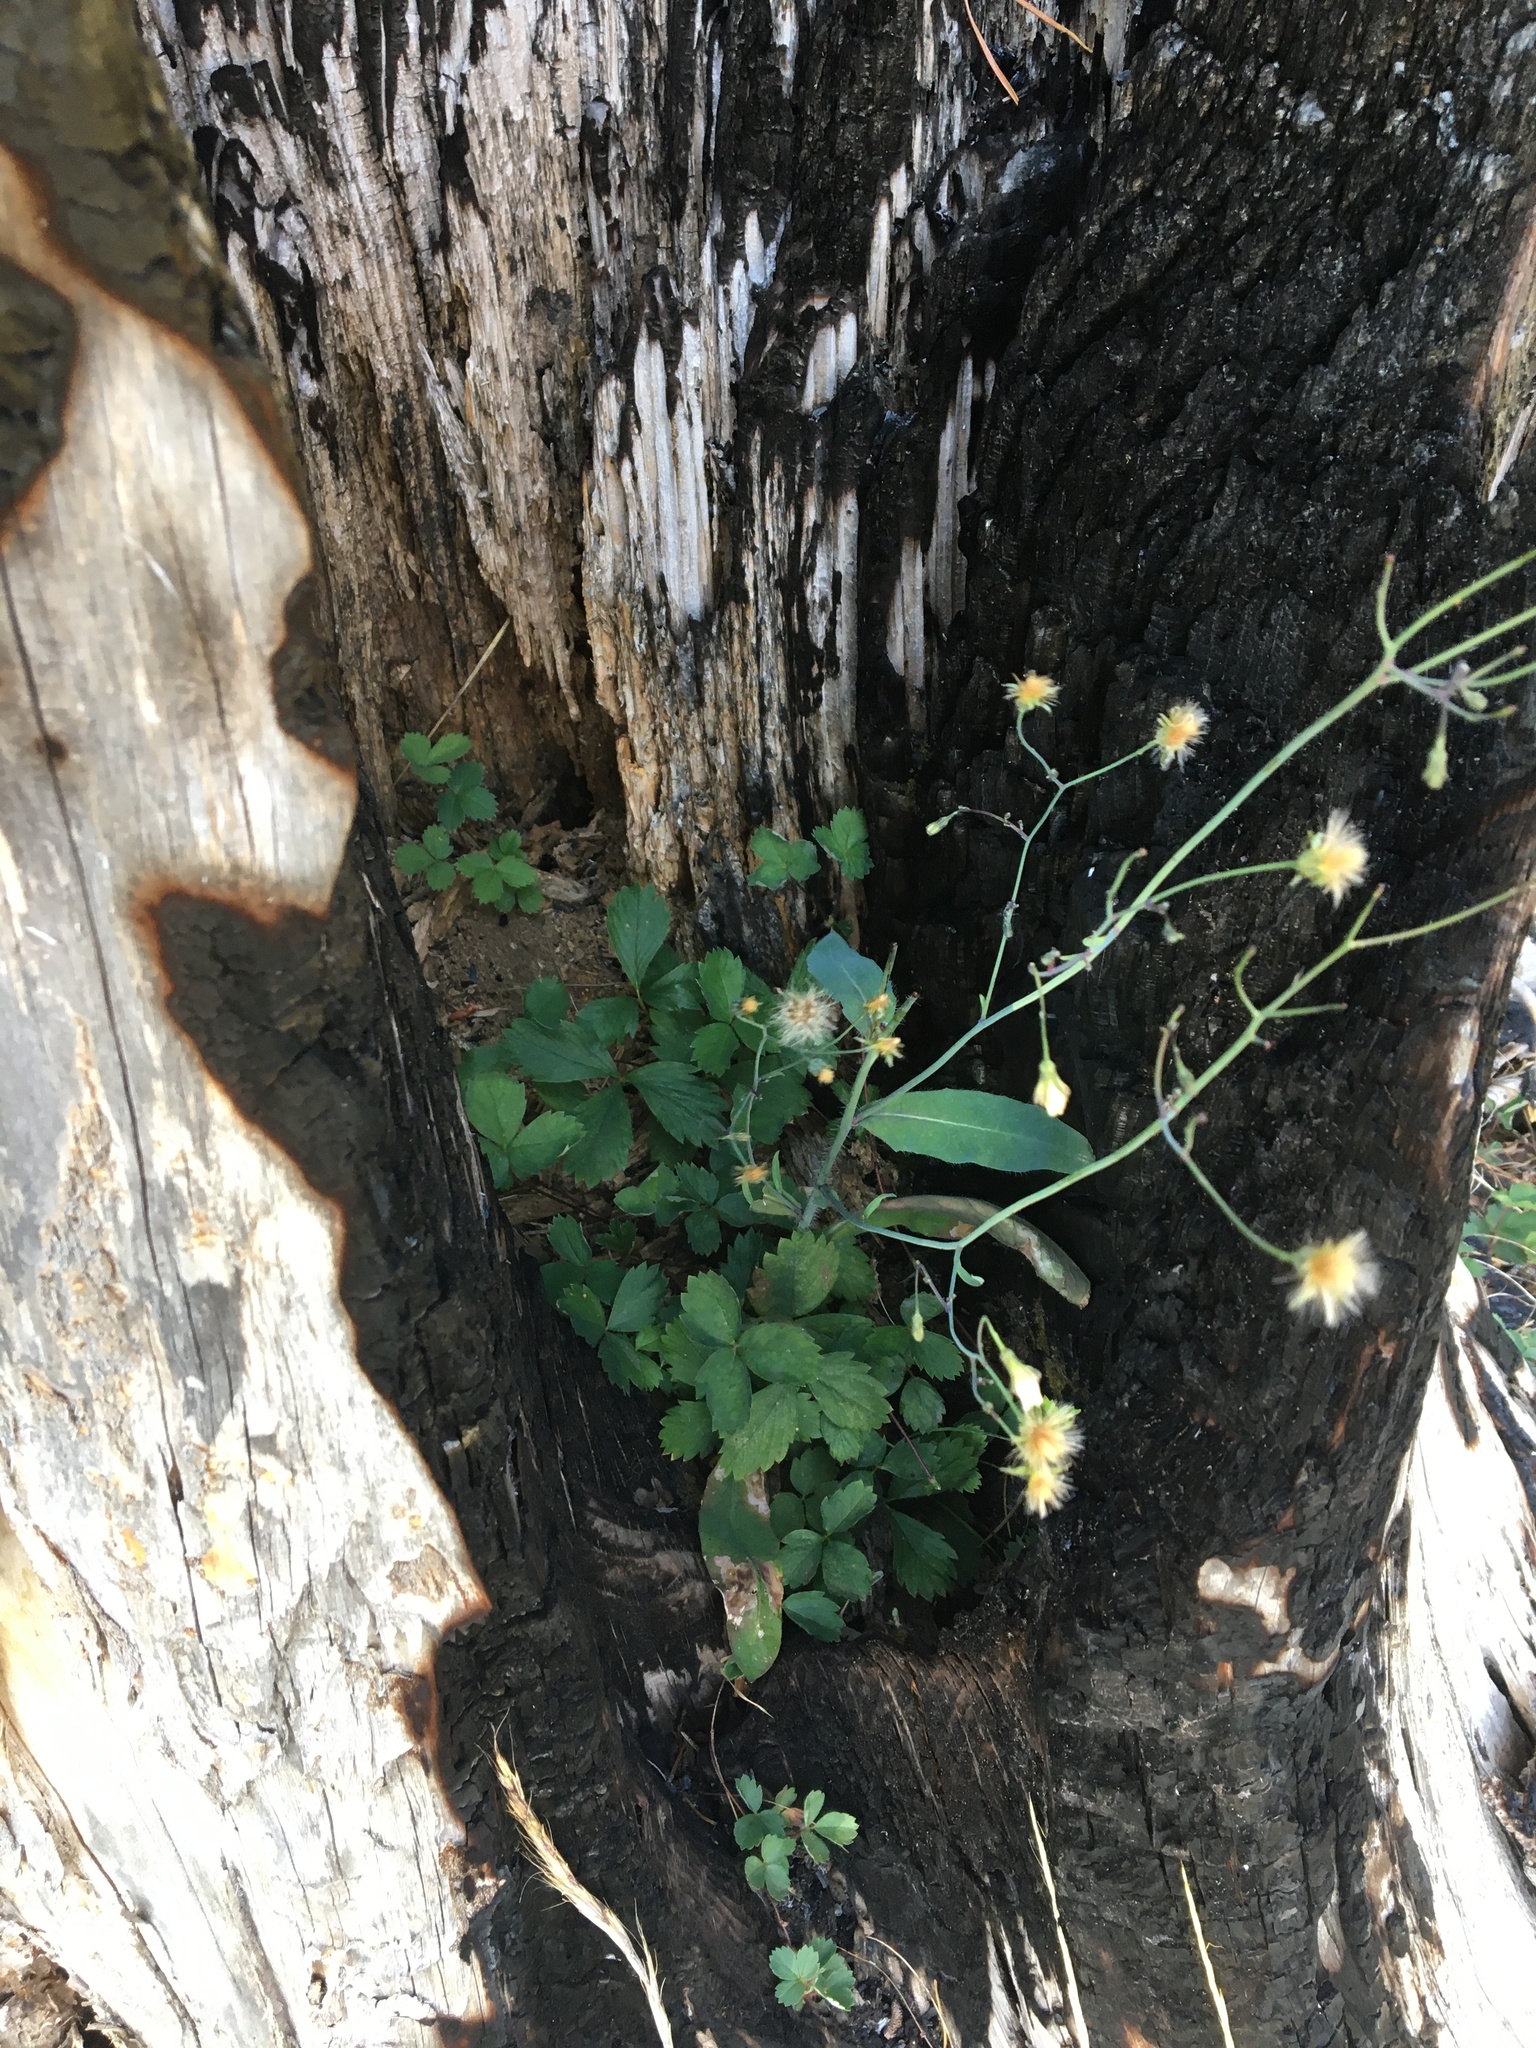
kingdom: Plantae
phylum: Tracheophyta
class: Magnoliopsida
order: Asterales
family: Asteraceae
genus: Hieracium
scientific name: Hieracium albiflorum
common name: White hawkweed
